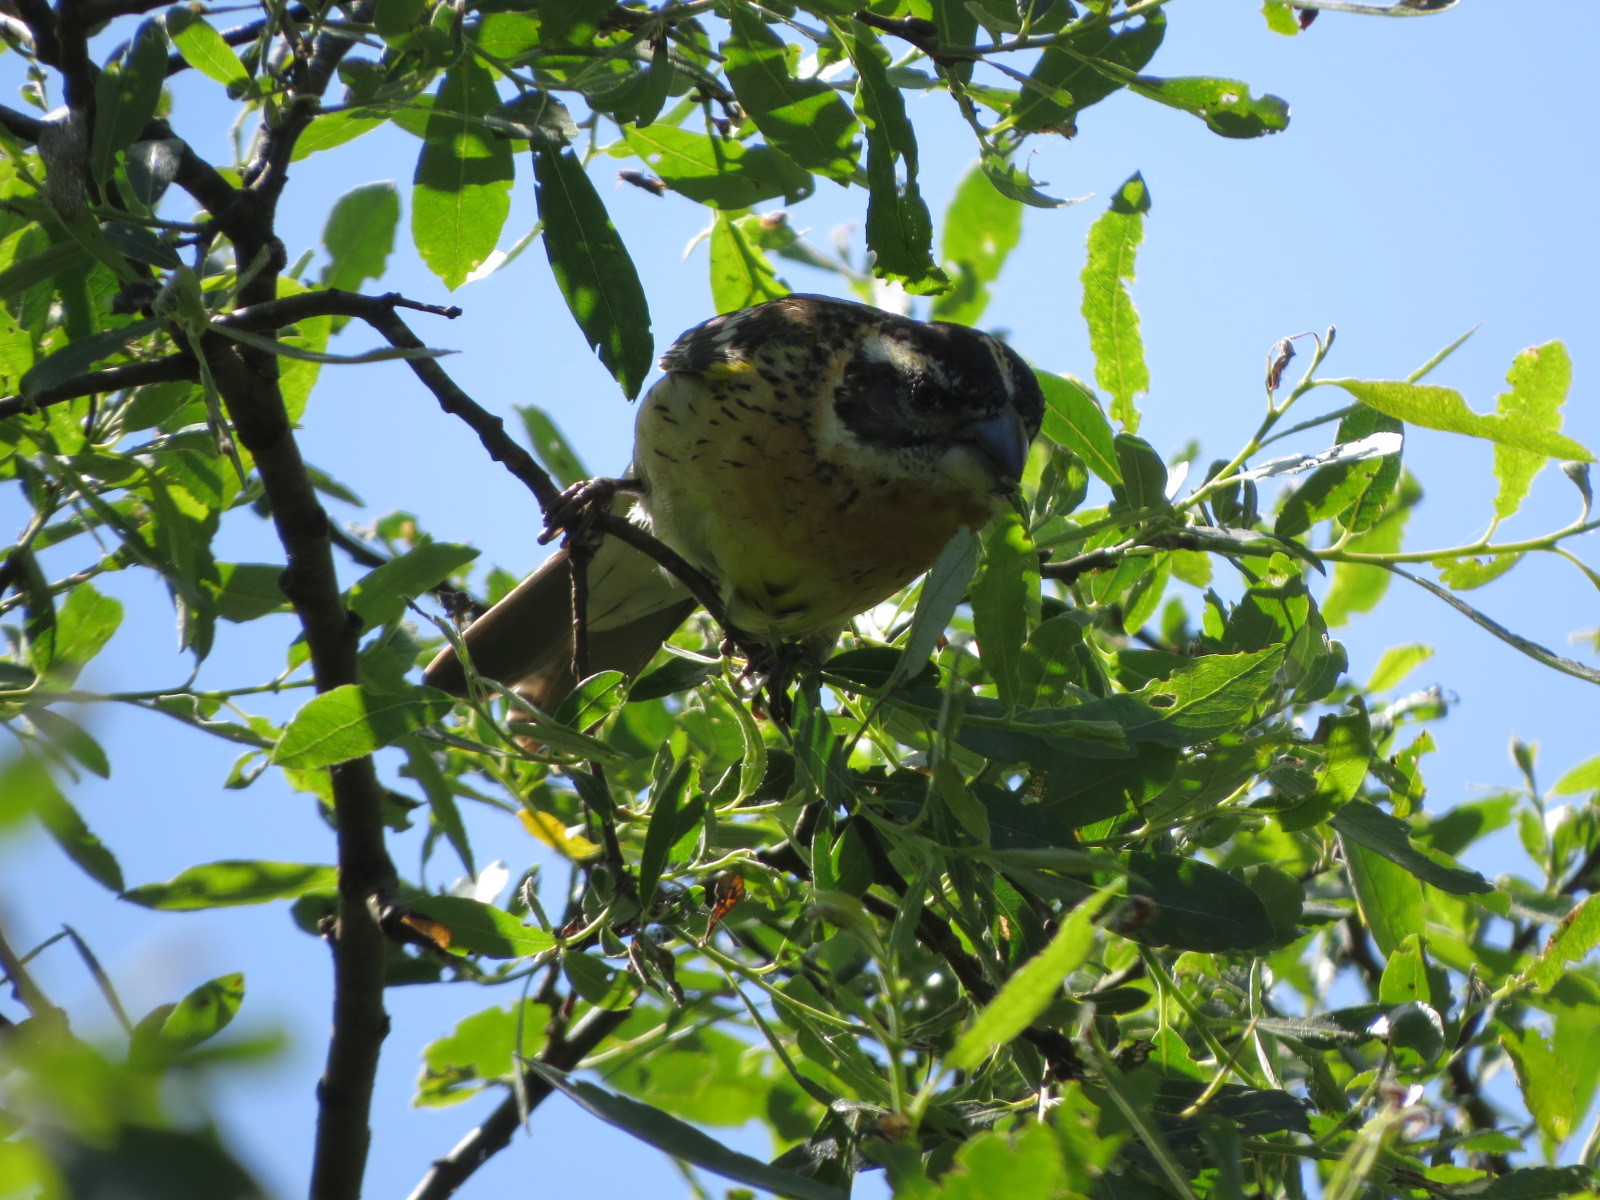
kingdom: Animalia
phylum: Chordata
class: Aves
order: Passeriformes
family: Cardinalidae
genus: Pheucticus
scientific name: Pheucticus melanocephalus
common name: Black-headed grosbeak
